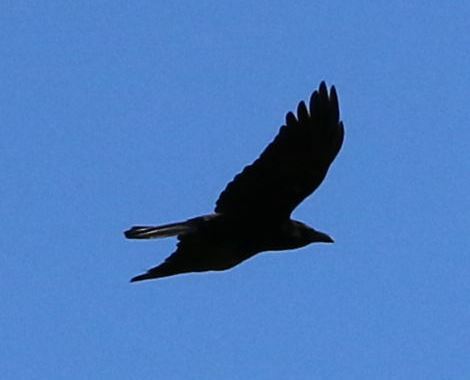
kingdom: Animalia
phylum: Chordata
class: Aves
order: Passeriformes
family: Corvidae
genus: Corvus
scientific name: Corvus corone
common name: Carrion crow
